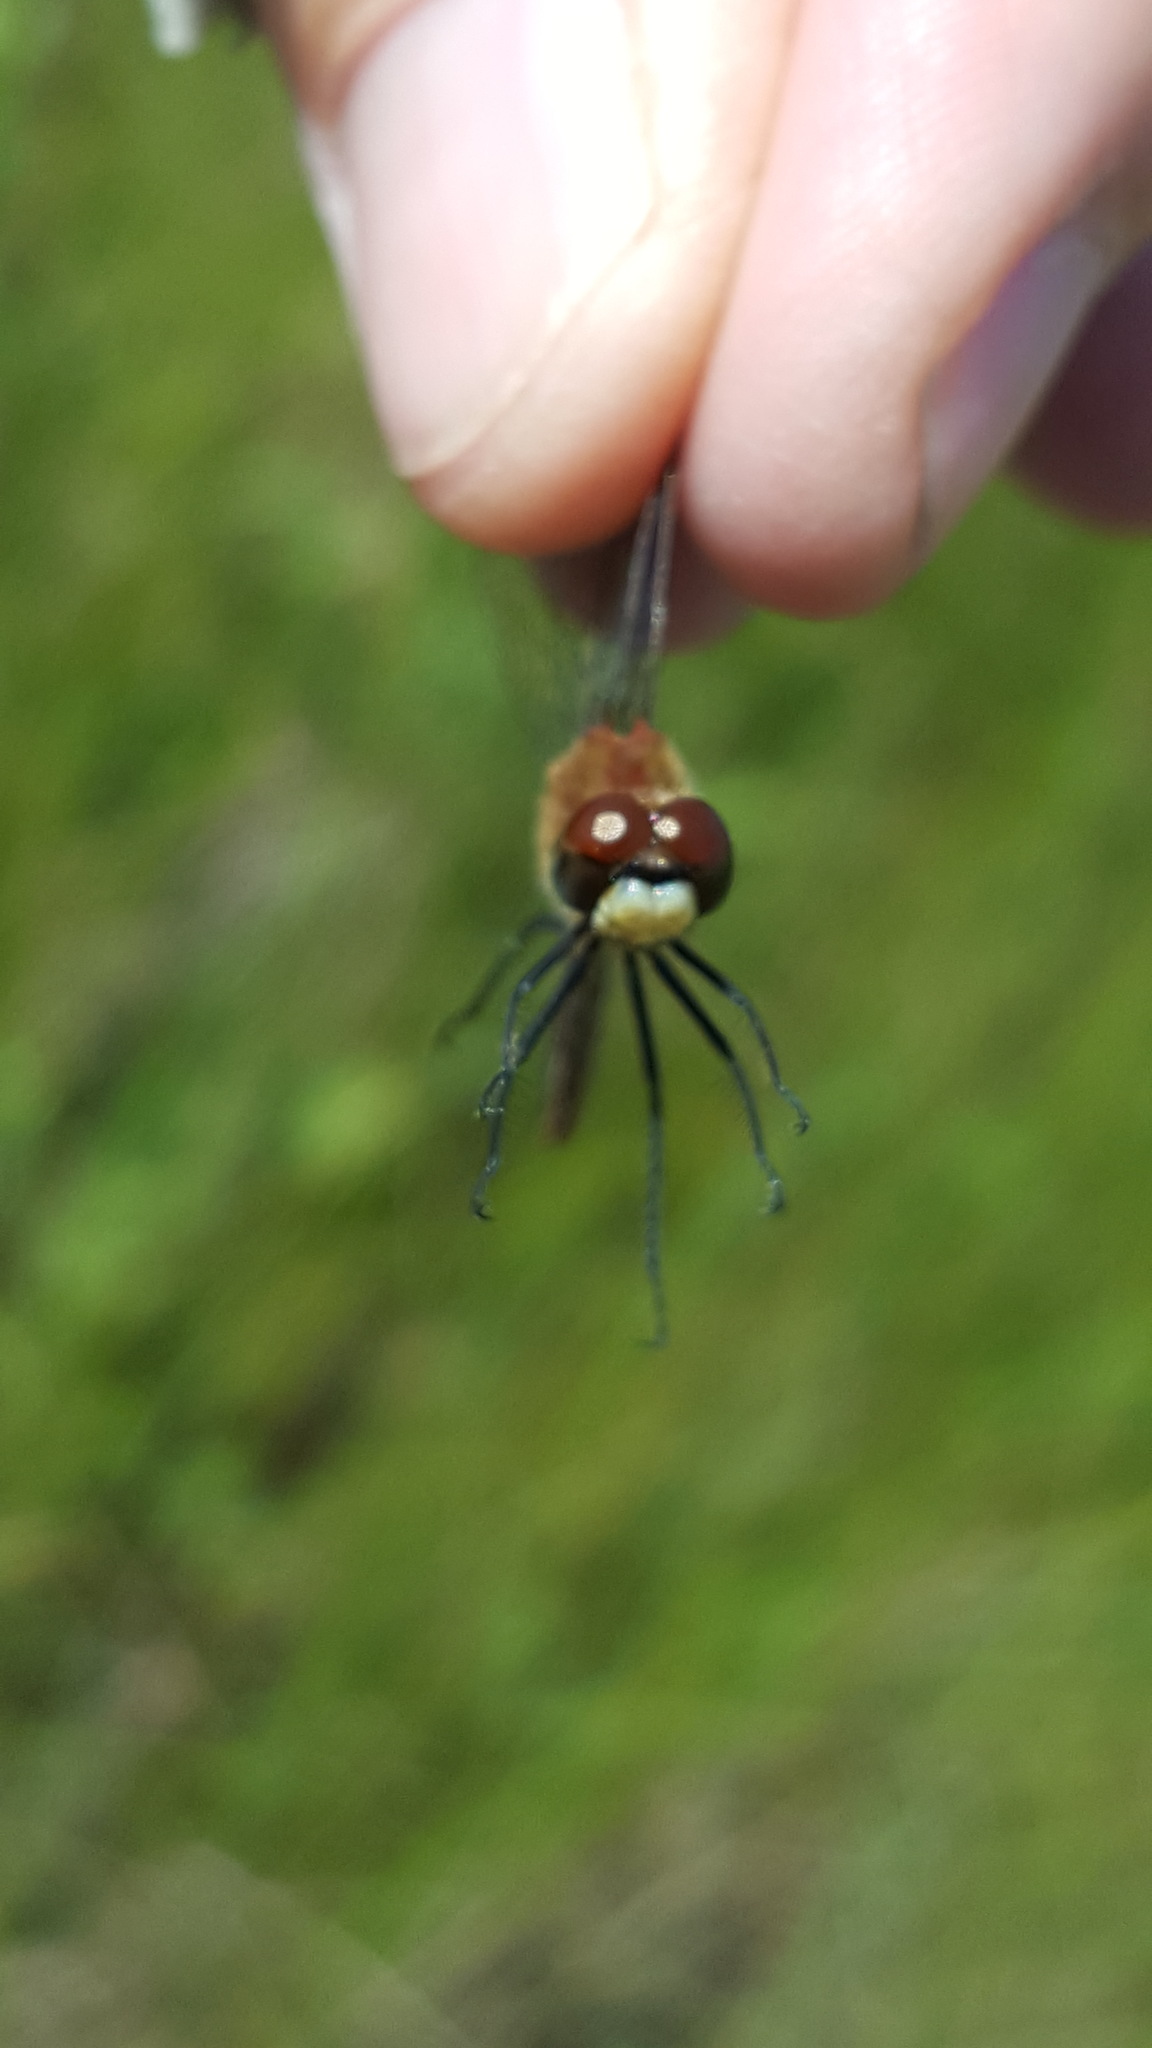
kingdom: Animalia
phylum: Arthropoda
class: Insecta
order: Odonata
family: Libellulidae
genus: Sympetrum
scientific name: Sympetrum obtrusum
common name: White-faced meadowhawk
